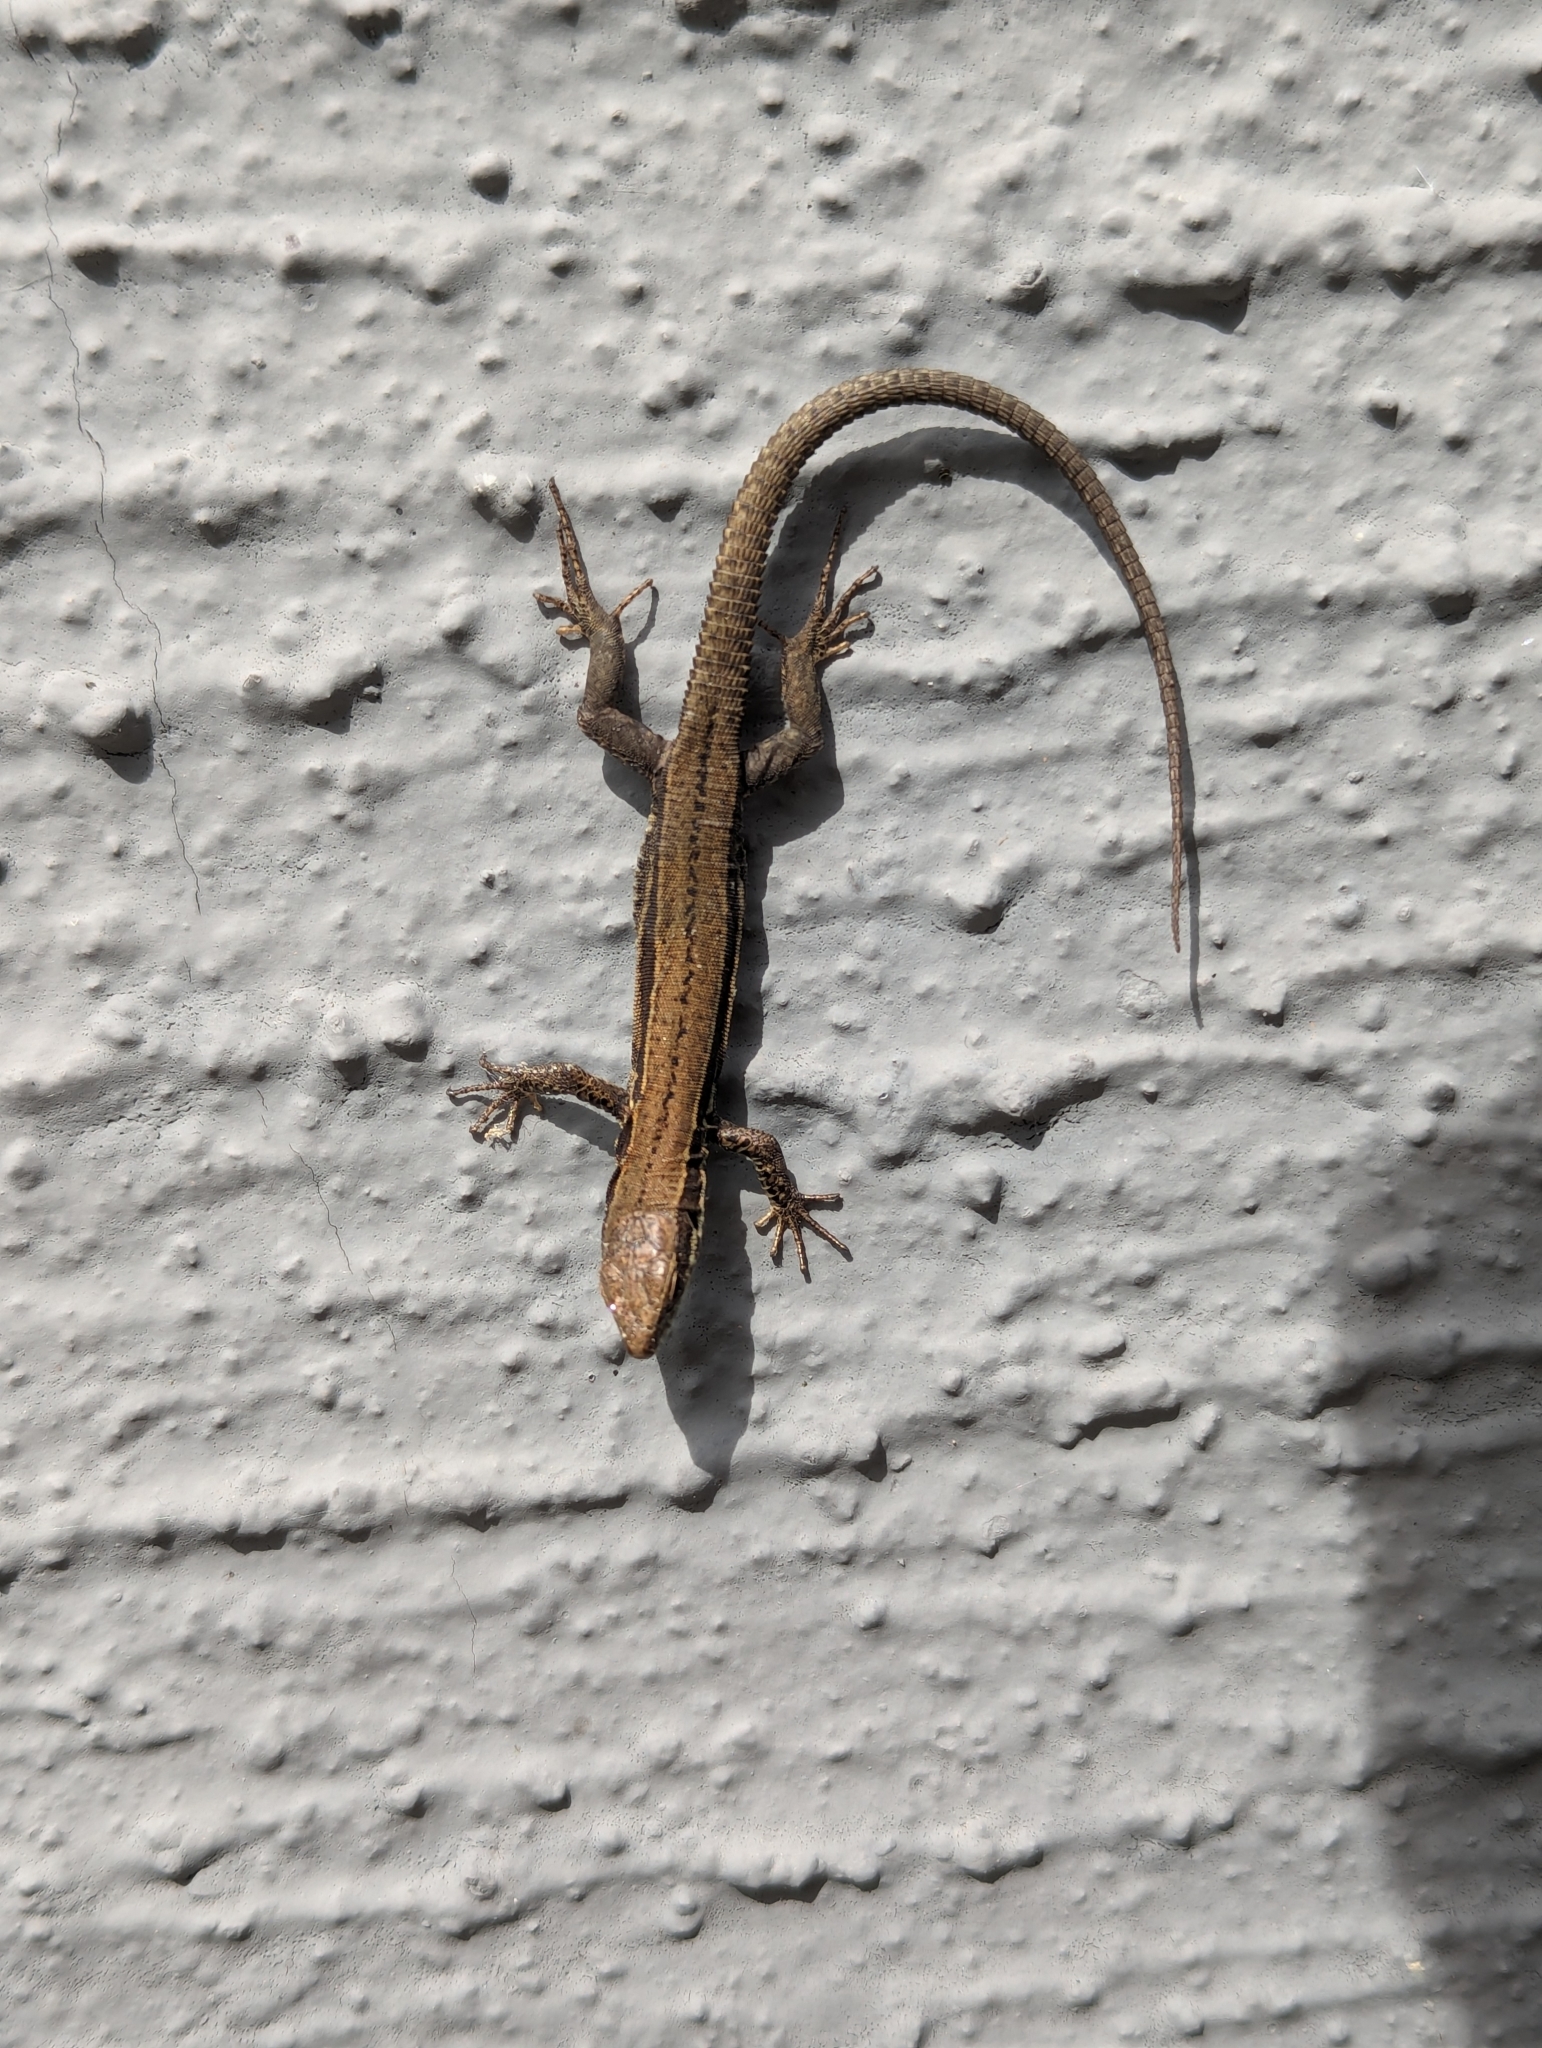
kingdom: Animalia
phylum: Chordata
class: Squamata
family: Lacertidae
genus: Podarcis
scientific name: Podarcis muralis
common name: Common wall lizard
